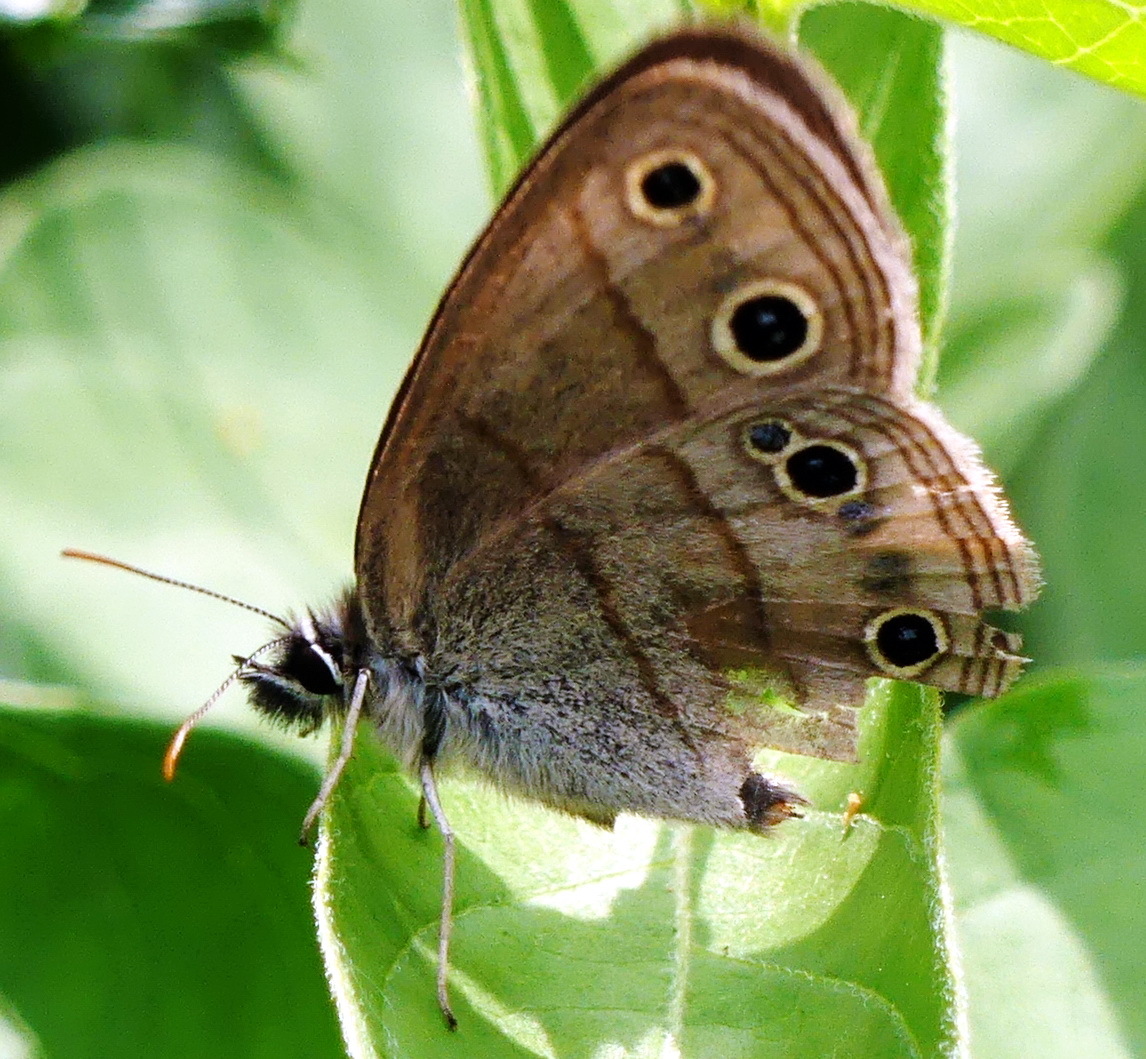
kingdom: Animalia
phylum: Arthropoda
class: Insecta
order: Lepidoptera
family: Nymphalidae
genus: Euptychia
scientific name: Euptychia cymela
